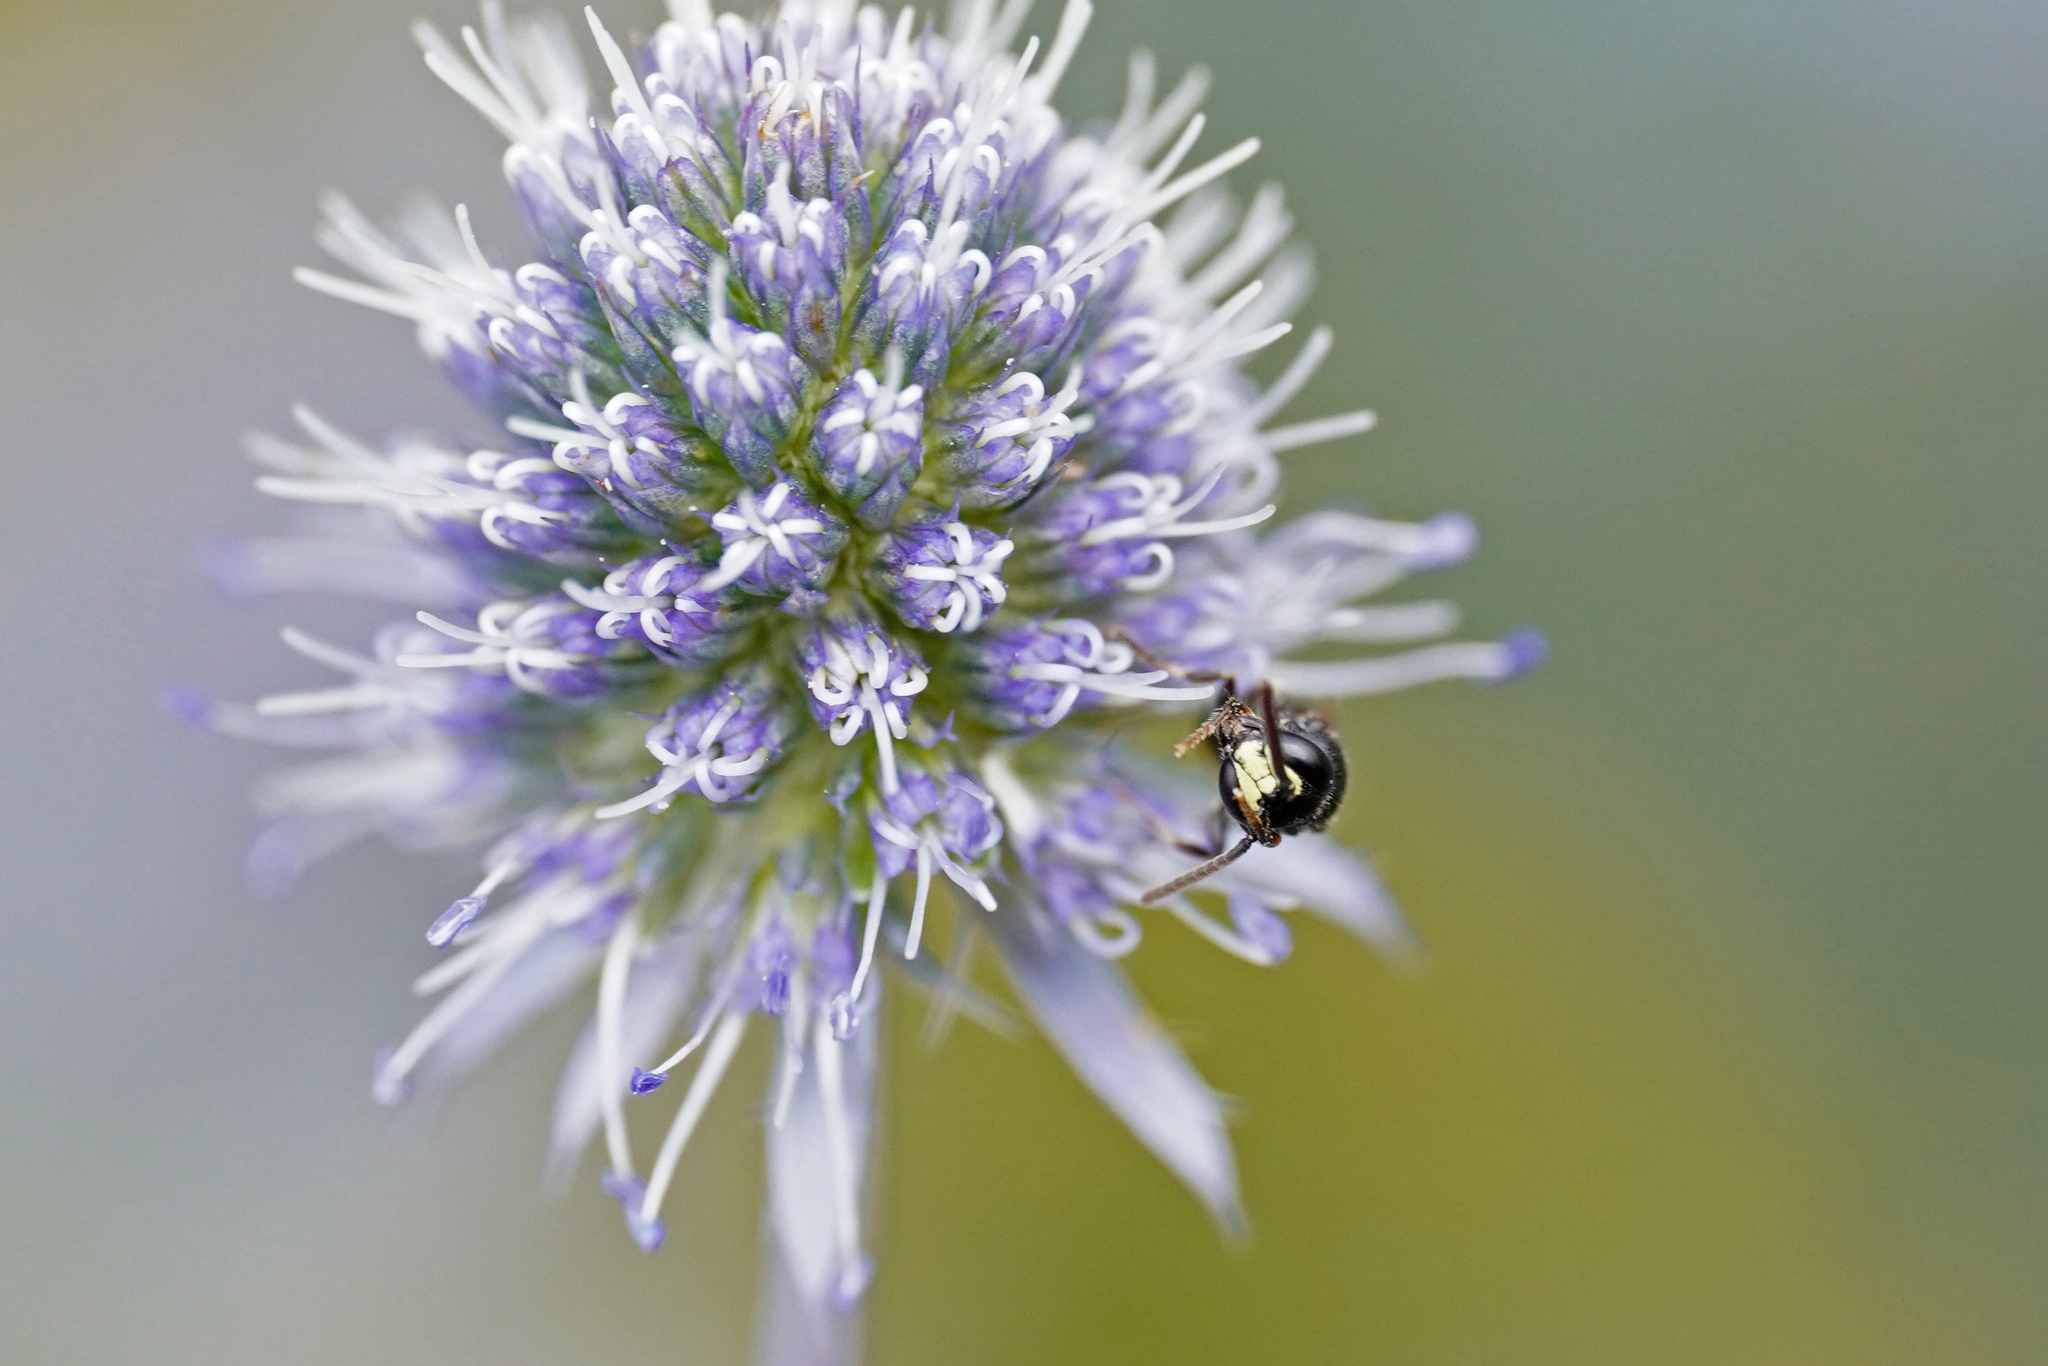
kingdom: Animalia
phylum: Arthropoda
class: Insecta
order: Hymenoptera
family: Colletidae
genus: Hylaeus
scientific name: Hylaeus communis
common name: Common yellow-face bee
